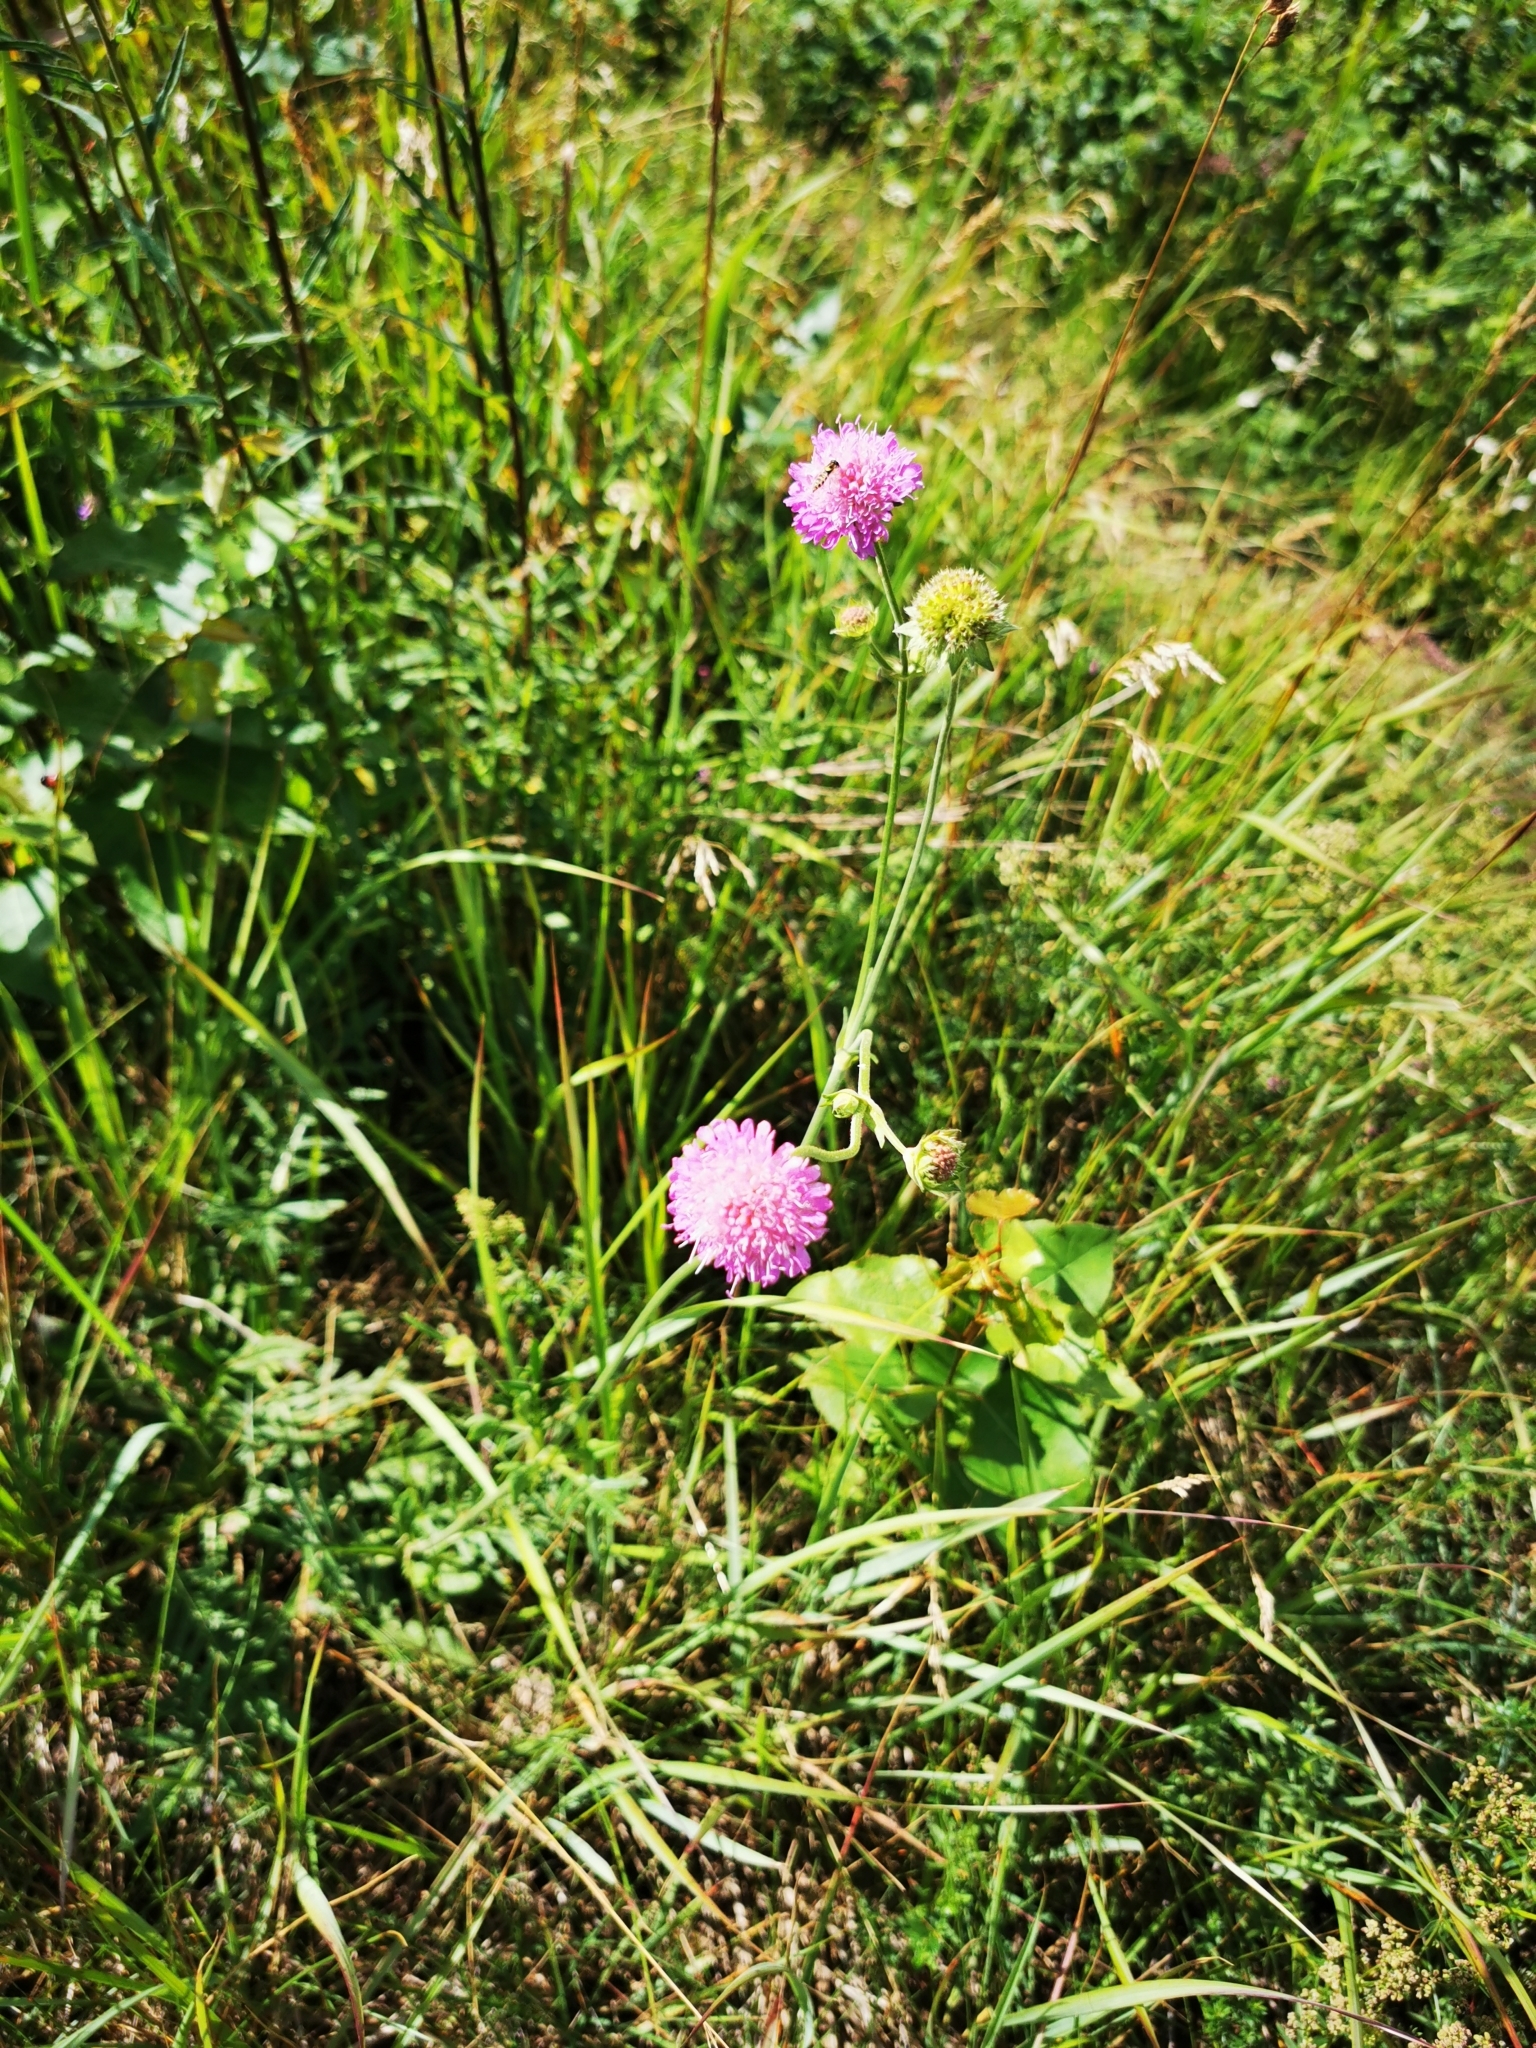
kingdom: Plantae
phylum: Tracheophyta
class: Magnoliopsida
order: Dipsacales
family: Caprifoliaceae
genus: Knautia
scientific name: Knautia arvensis
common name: Field scabiosa
